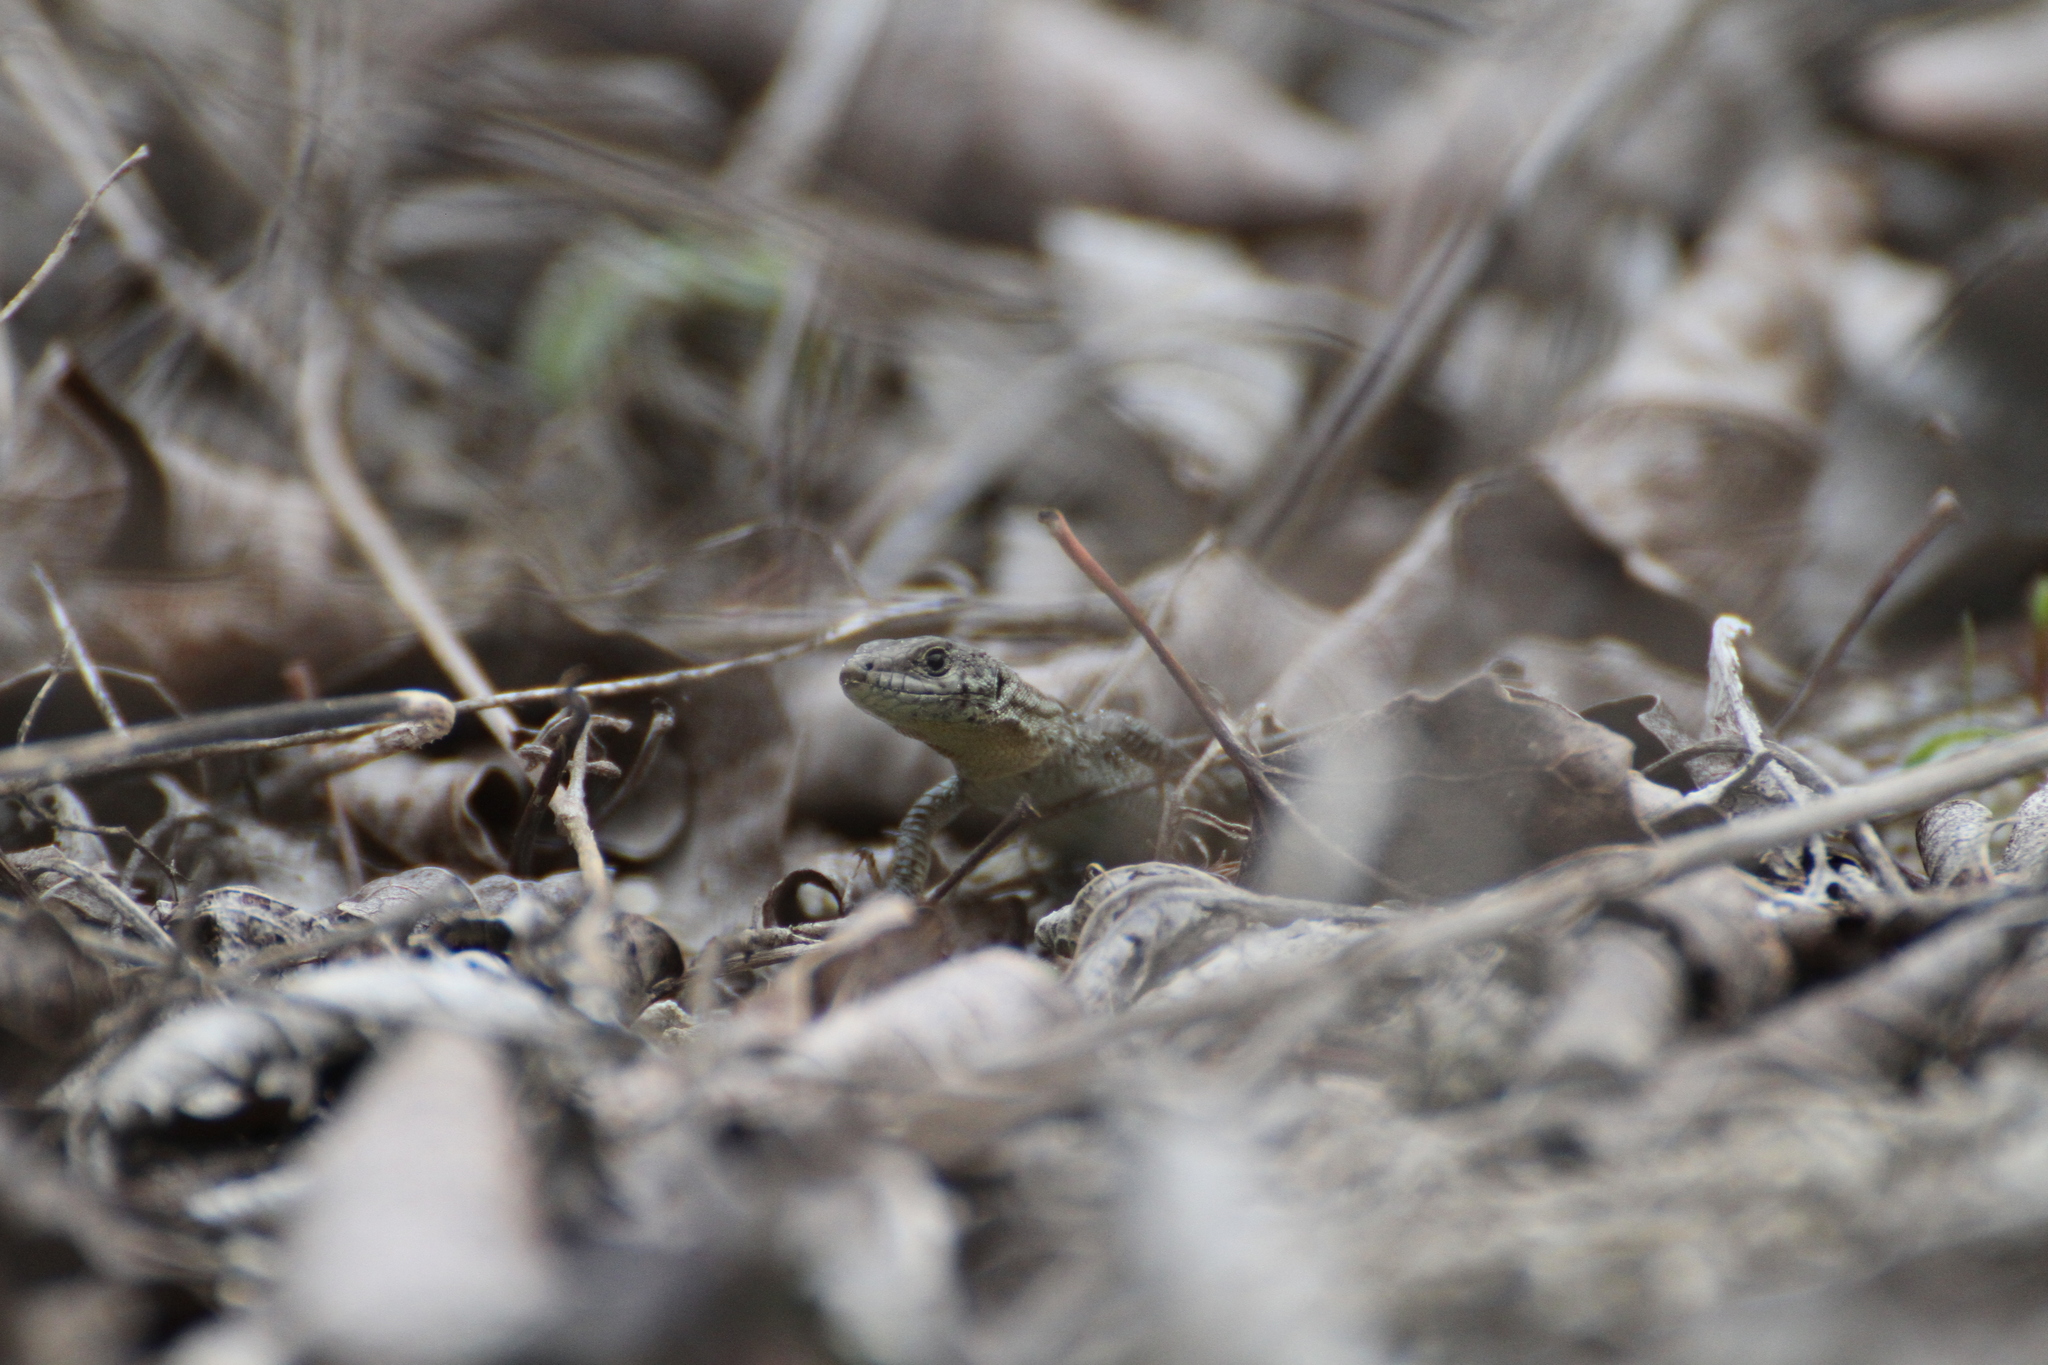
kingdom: Animalia
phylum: Chordata
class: Squamata
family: Lacertidae
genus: Podarcis
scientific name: Podarcis liolepis
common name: Catalonian wall lizard
